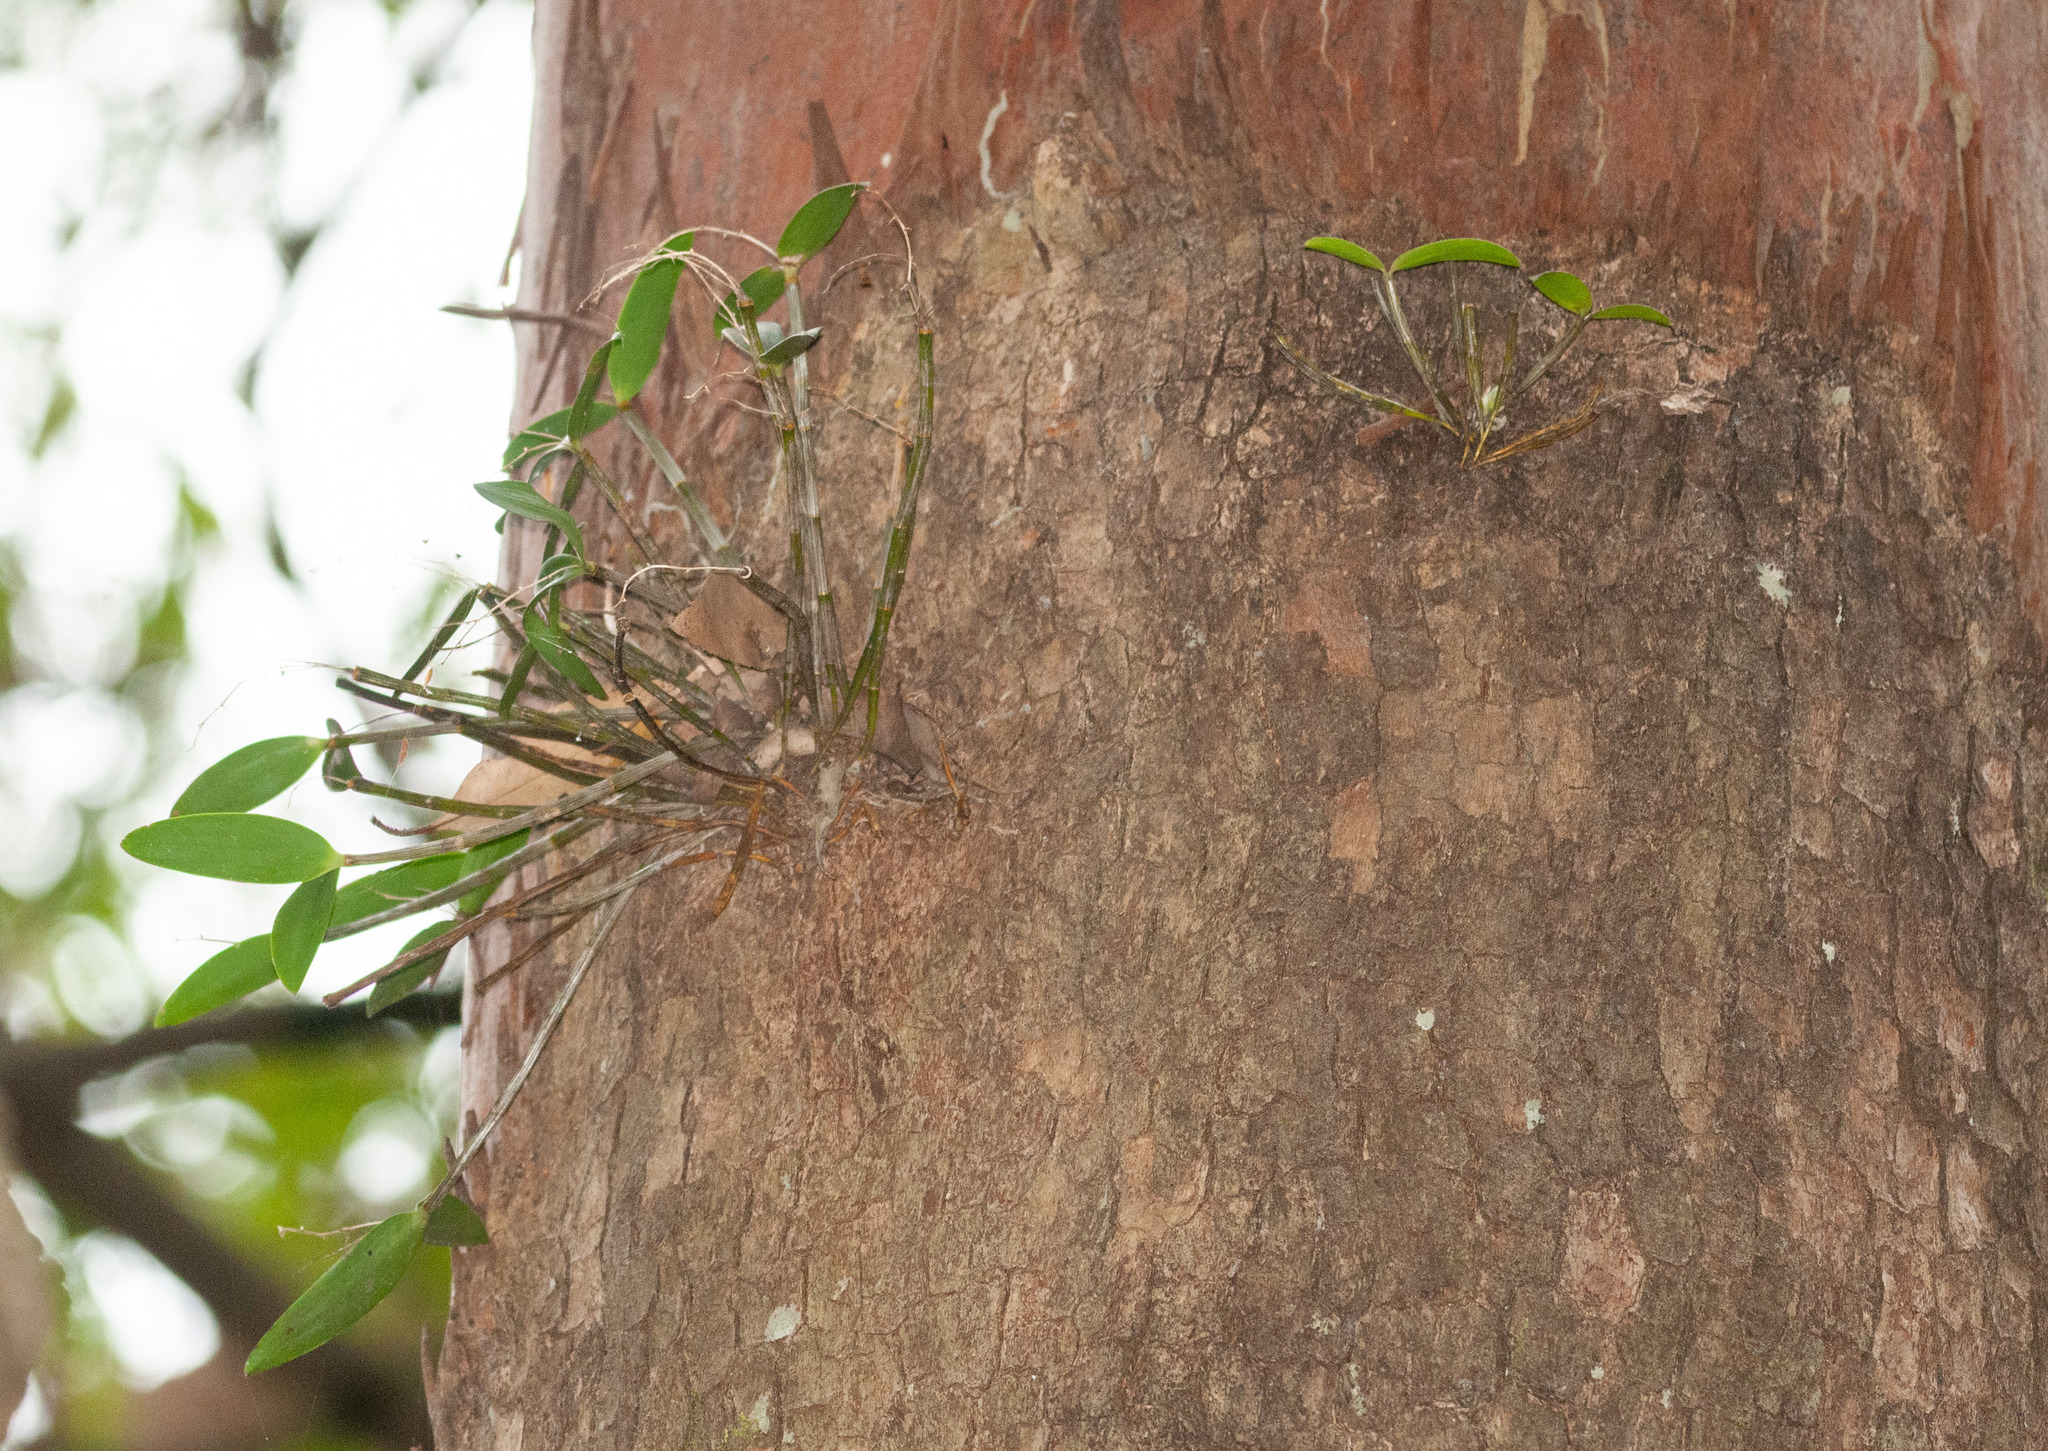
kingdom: Plantae
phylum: Tracheophyta
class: Liliopsida
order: Asparagales
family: Orchidaceae
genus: Dendrobium
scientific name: Dendrobium aemulum
